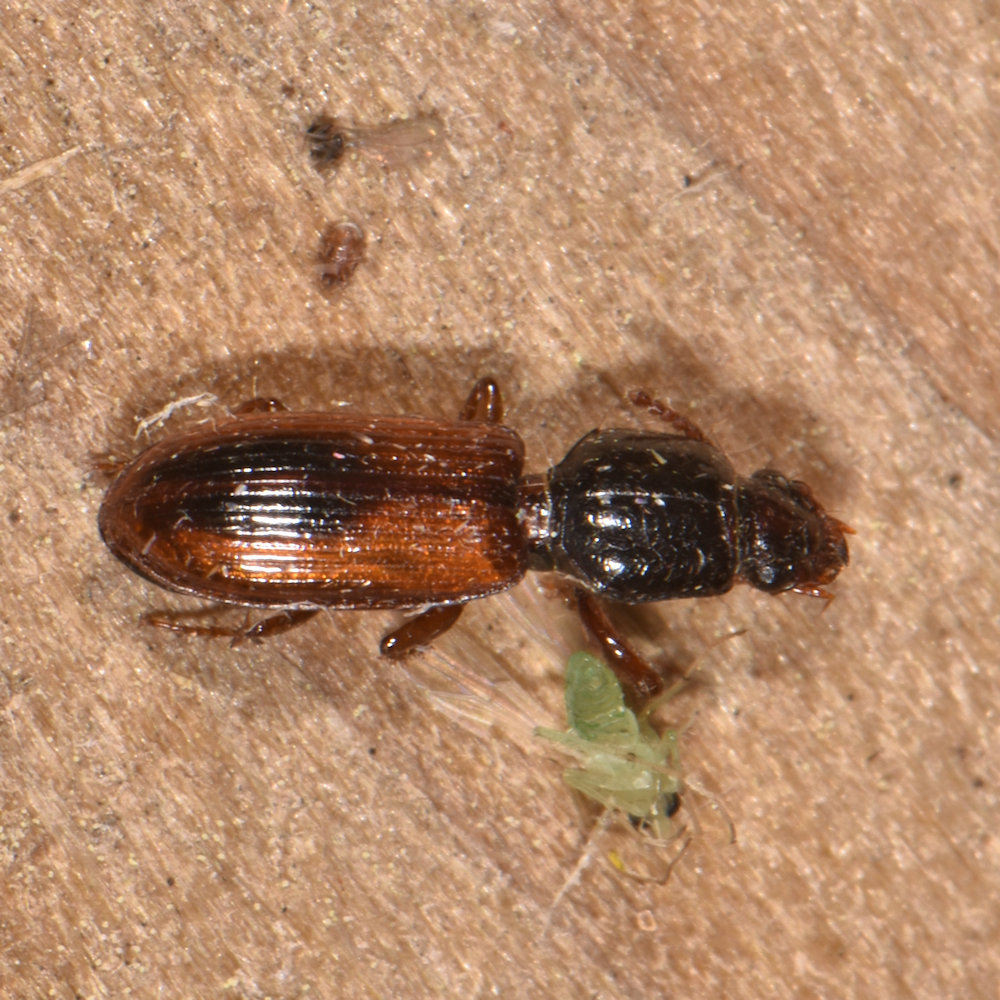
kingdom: Animalia
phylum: Arthropoda
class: Insecta
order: Coleoptera
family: Carabidae
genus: Clivina
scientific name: Clivina collaris
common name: Collared pedunculate ground beetle
